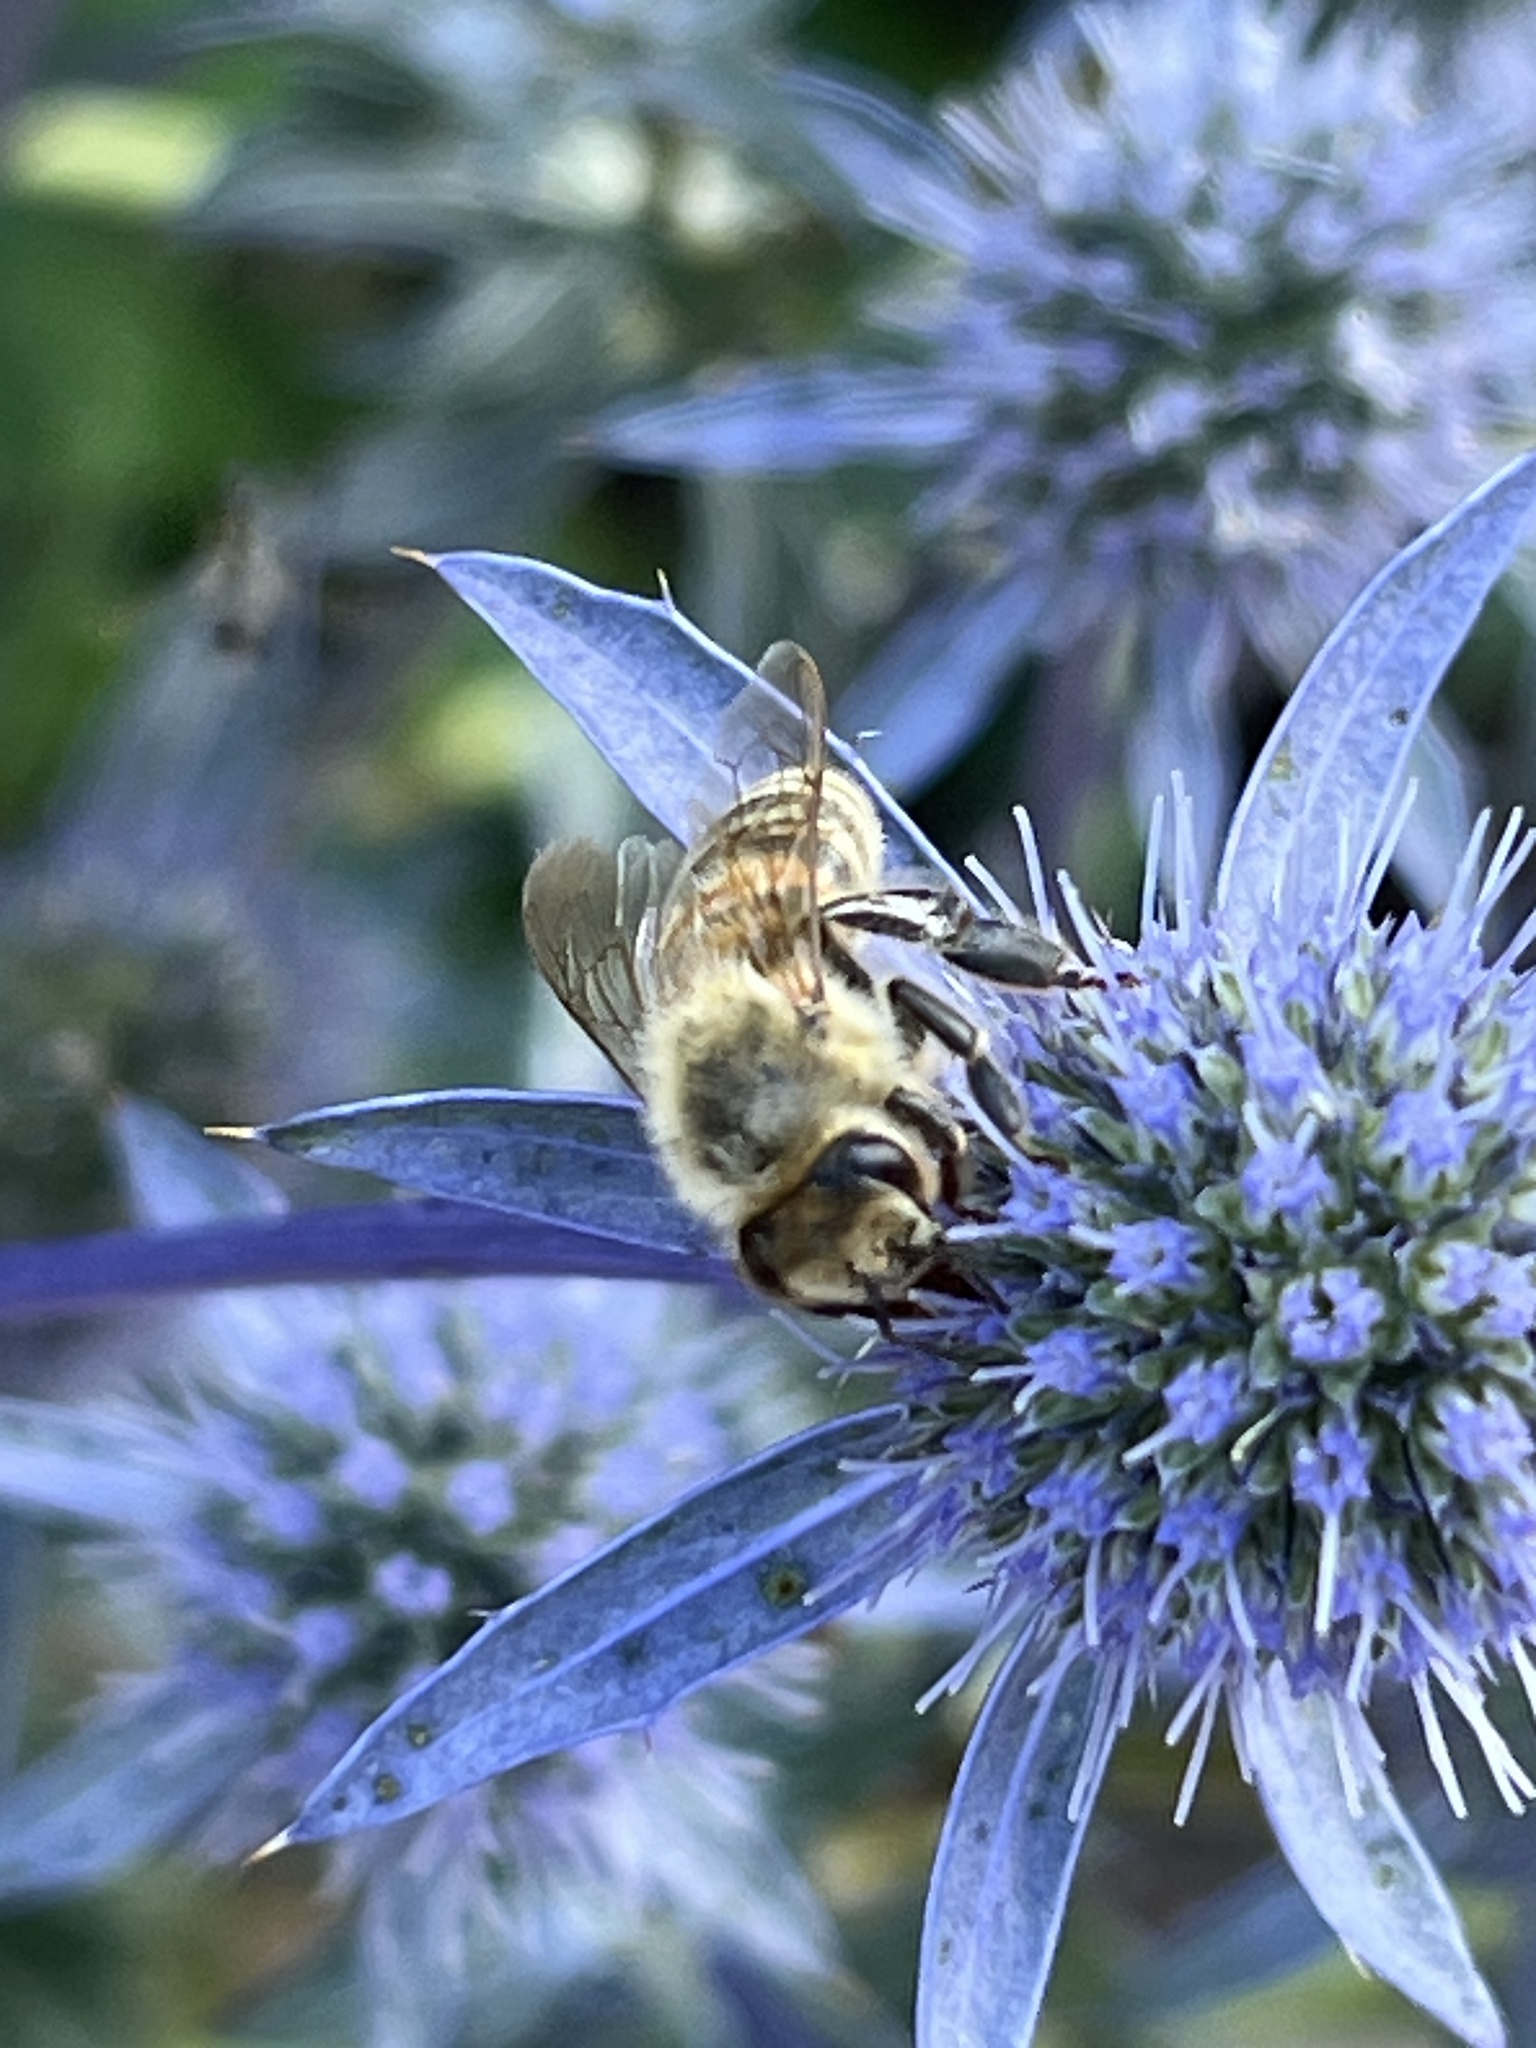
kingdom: Animalia
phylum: Arthropoda
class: Insecta
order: Hymenoptera
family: Apidae
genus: Apis
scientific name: Apis mellifera
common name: Honey bee
